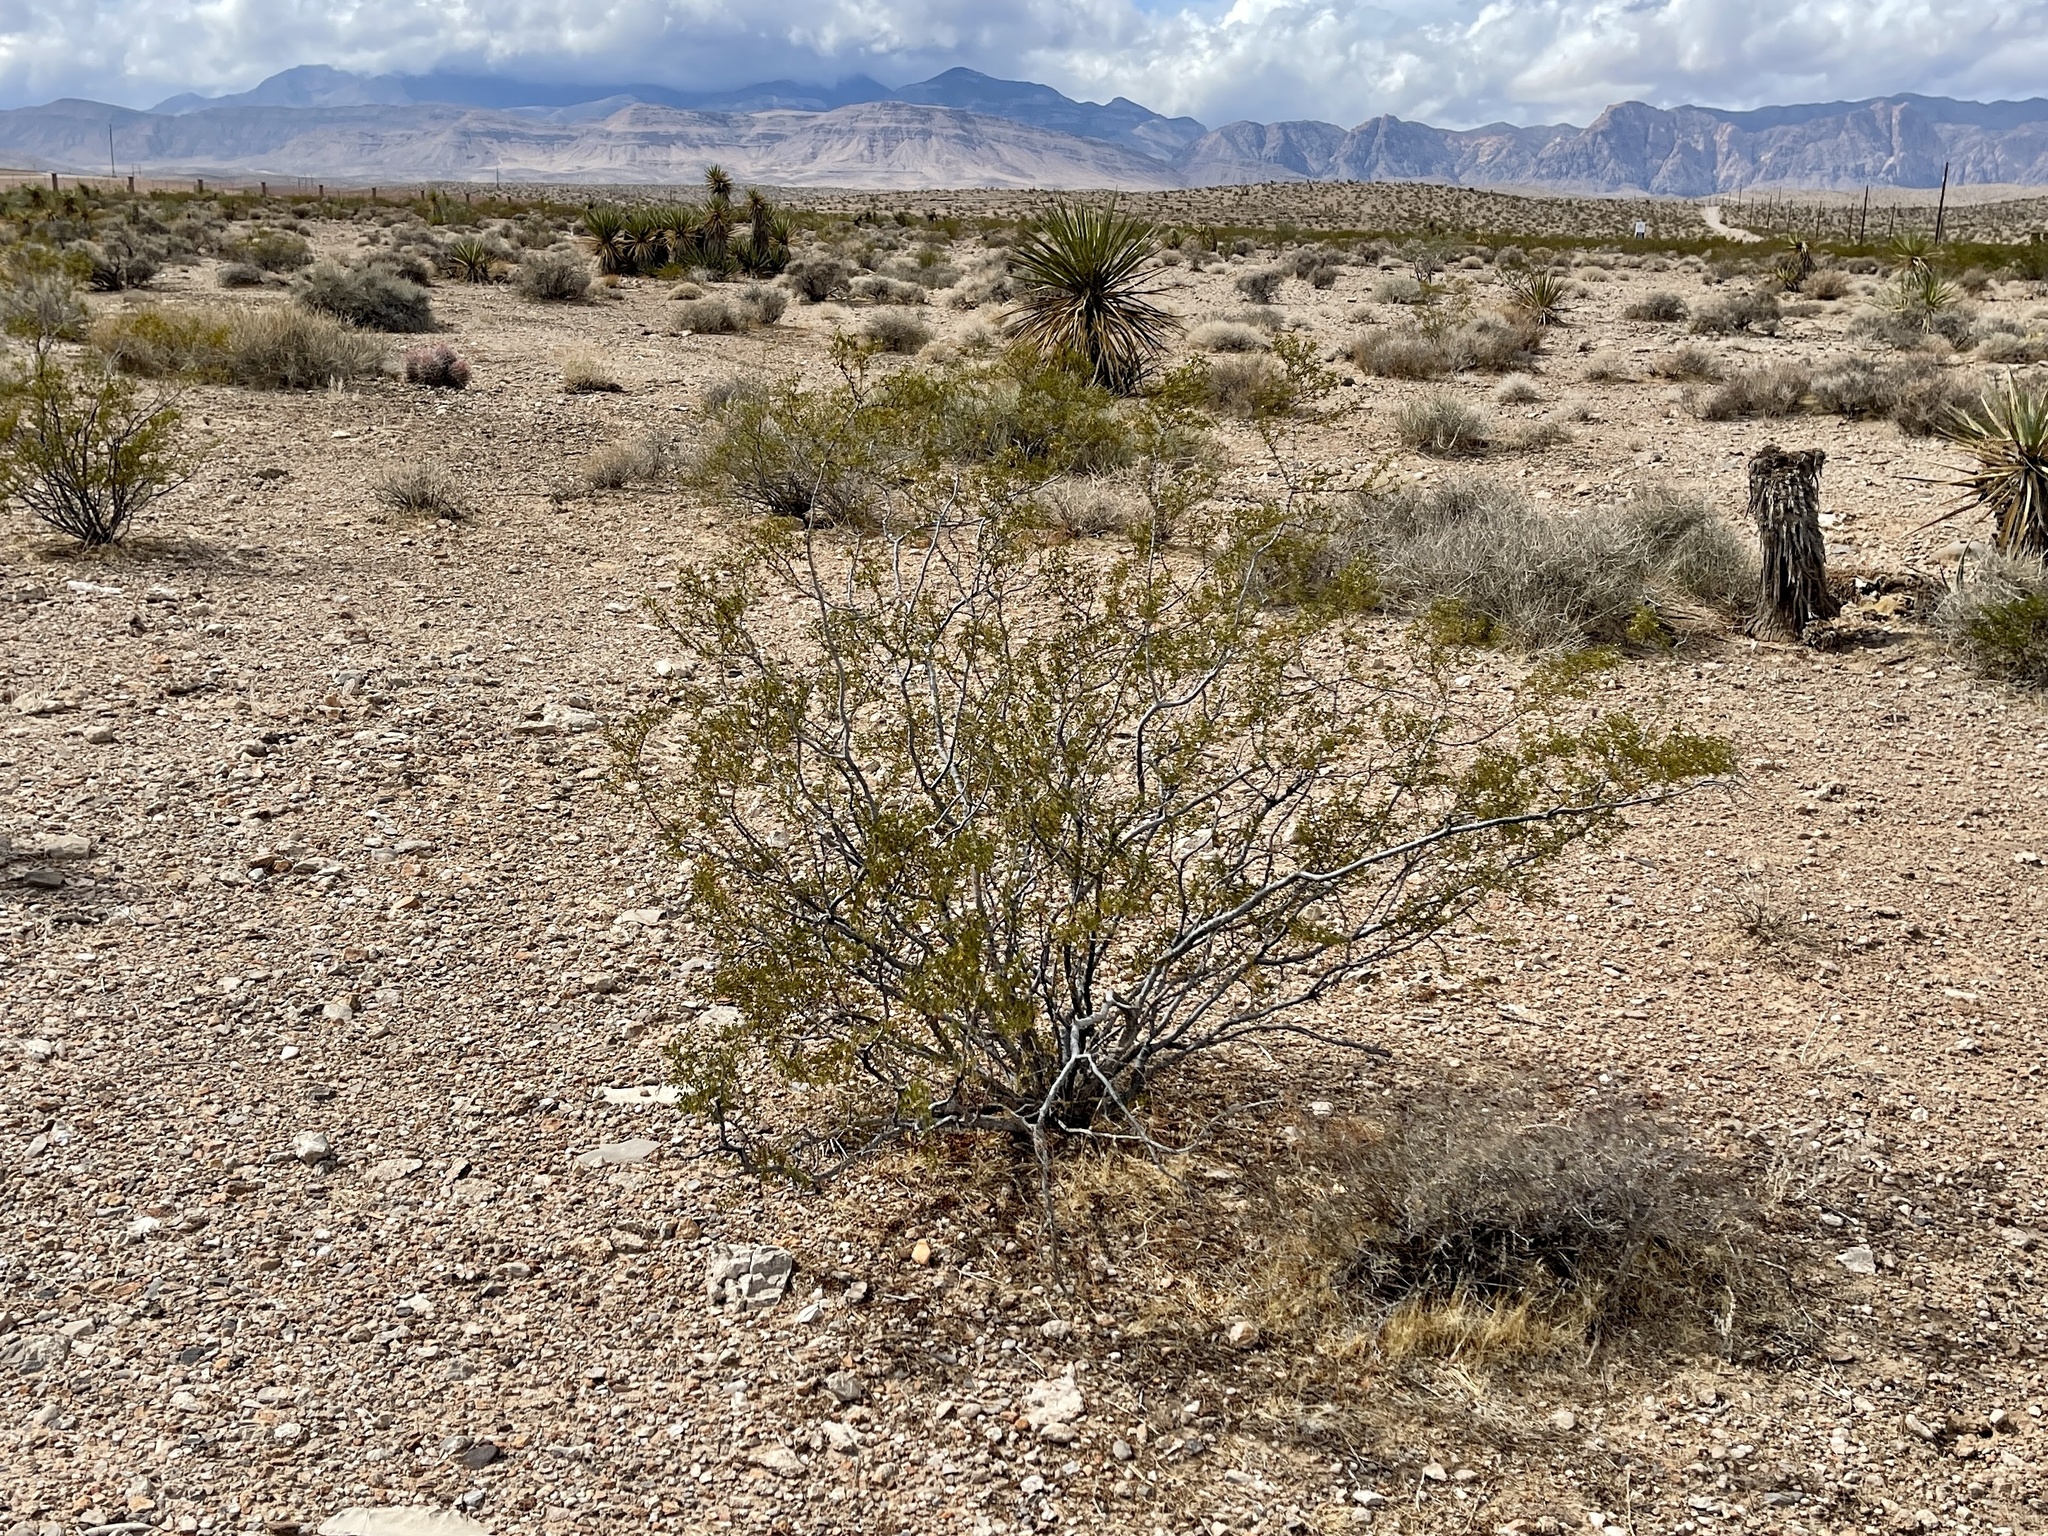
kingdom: Plantae
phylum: Tracheophyta
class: Magnoliopsida
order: Zygophyllales
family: Zygophyllaceae
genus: Larrea
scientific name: Larrea tridentata
